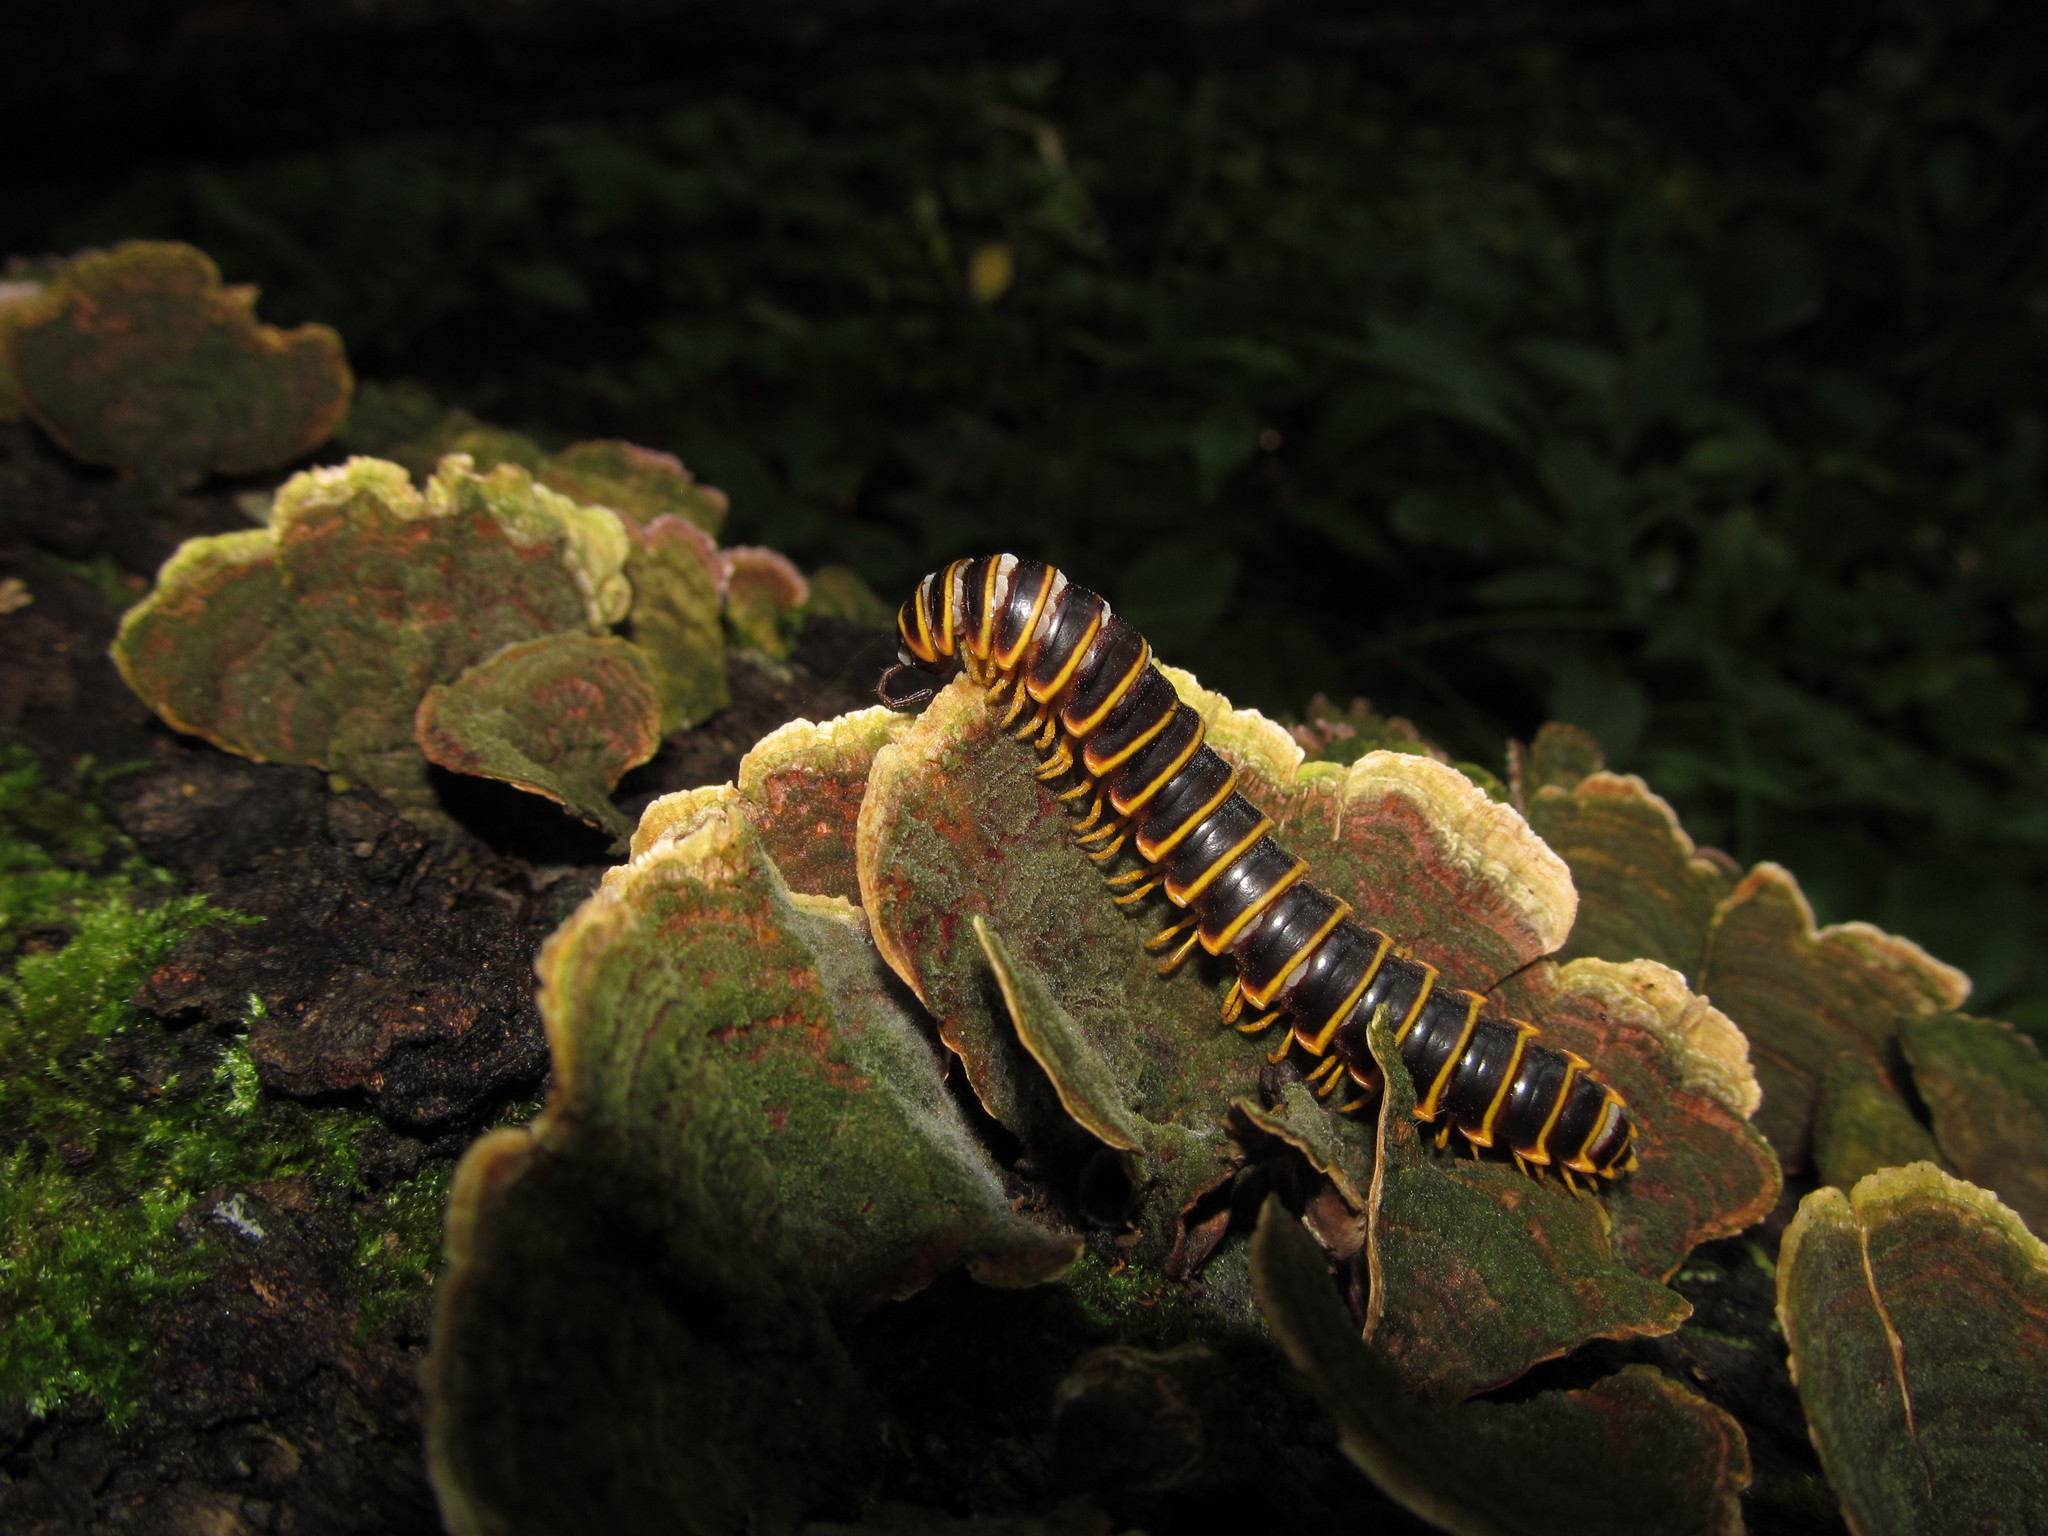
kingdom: Animalia
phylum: Arthropoda
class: Diplopoda
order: Polydesmida
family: Xystodesmidae
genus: Apheloria
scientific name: Apheloria virginiensis
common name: Black-and-gold flat millipede
